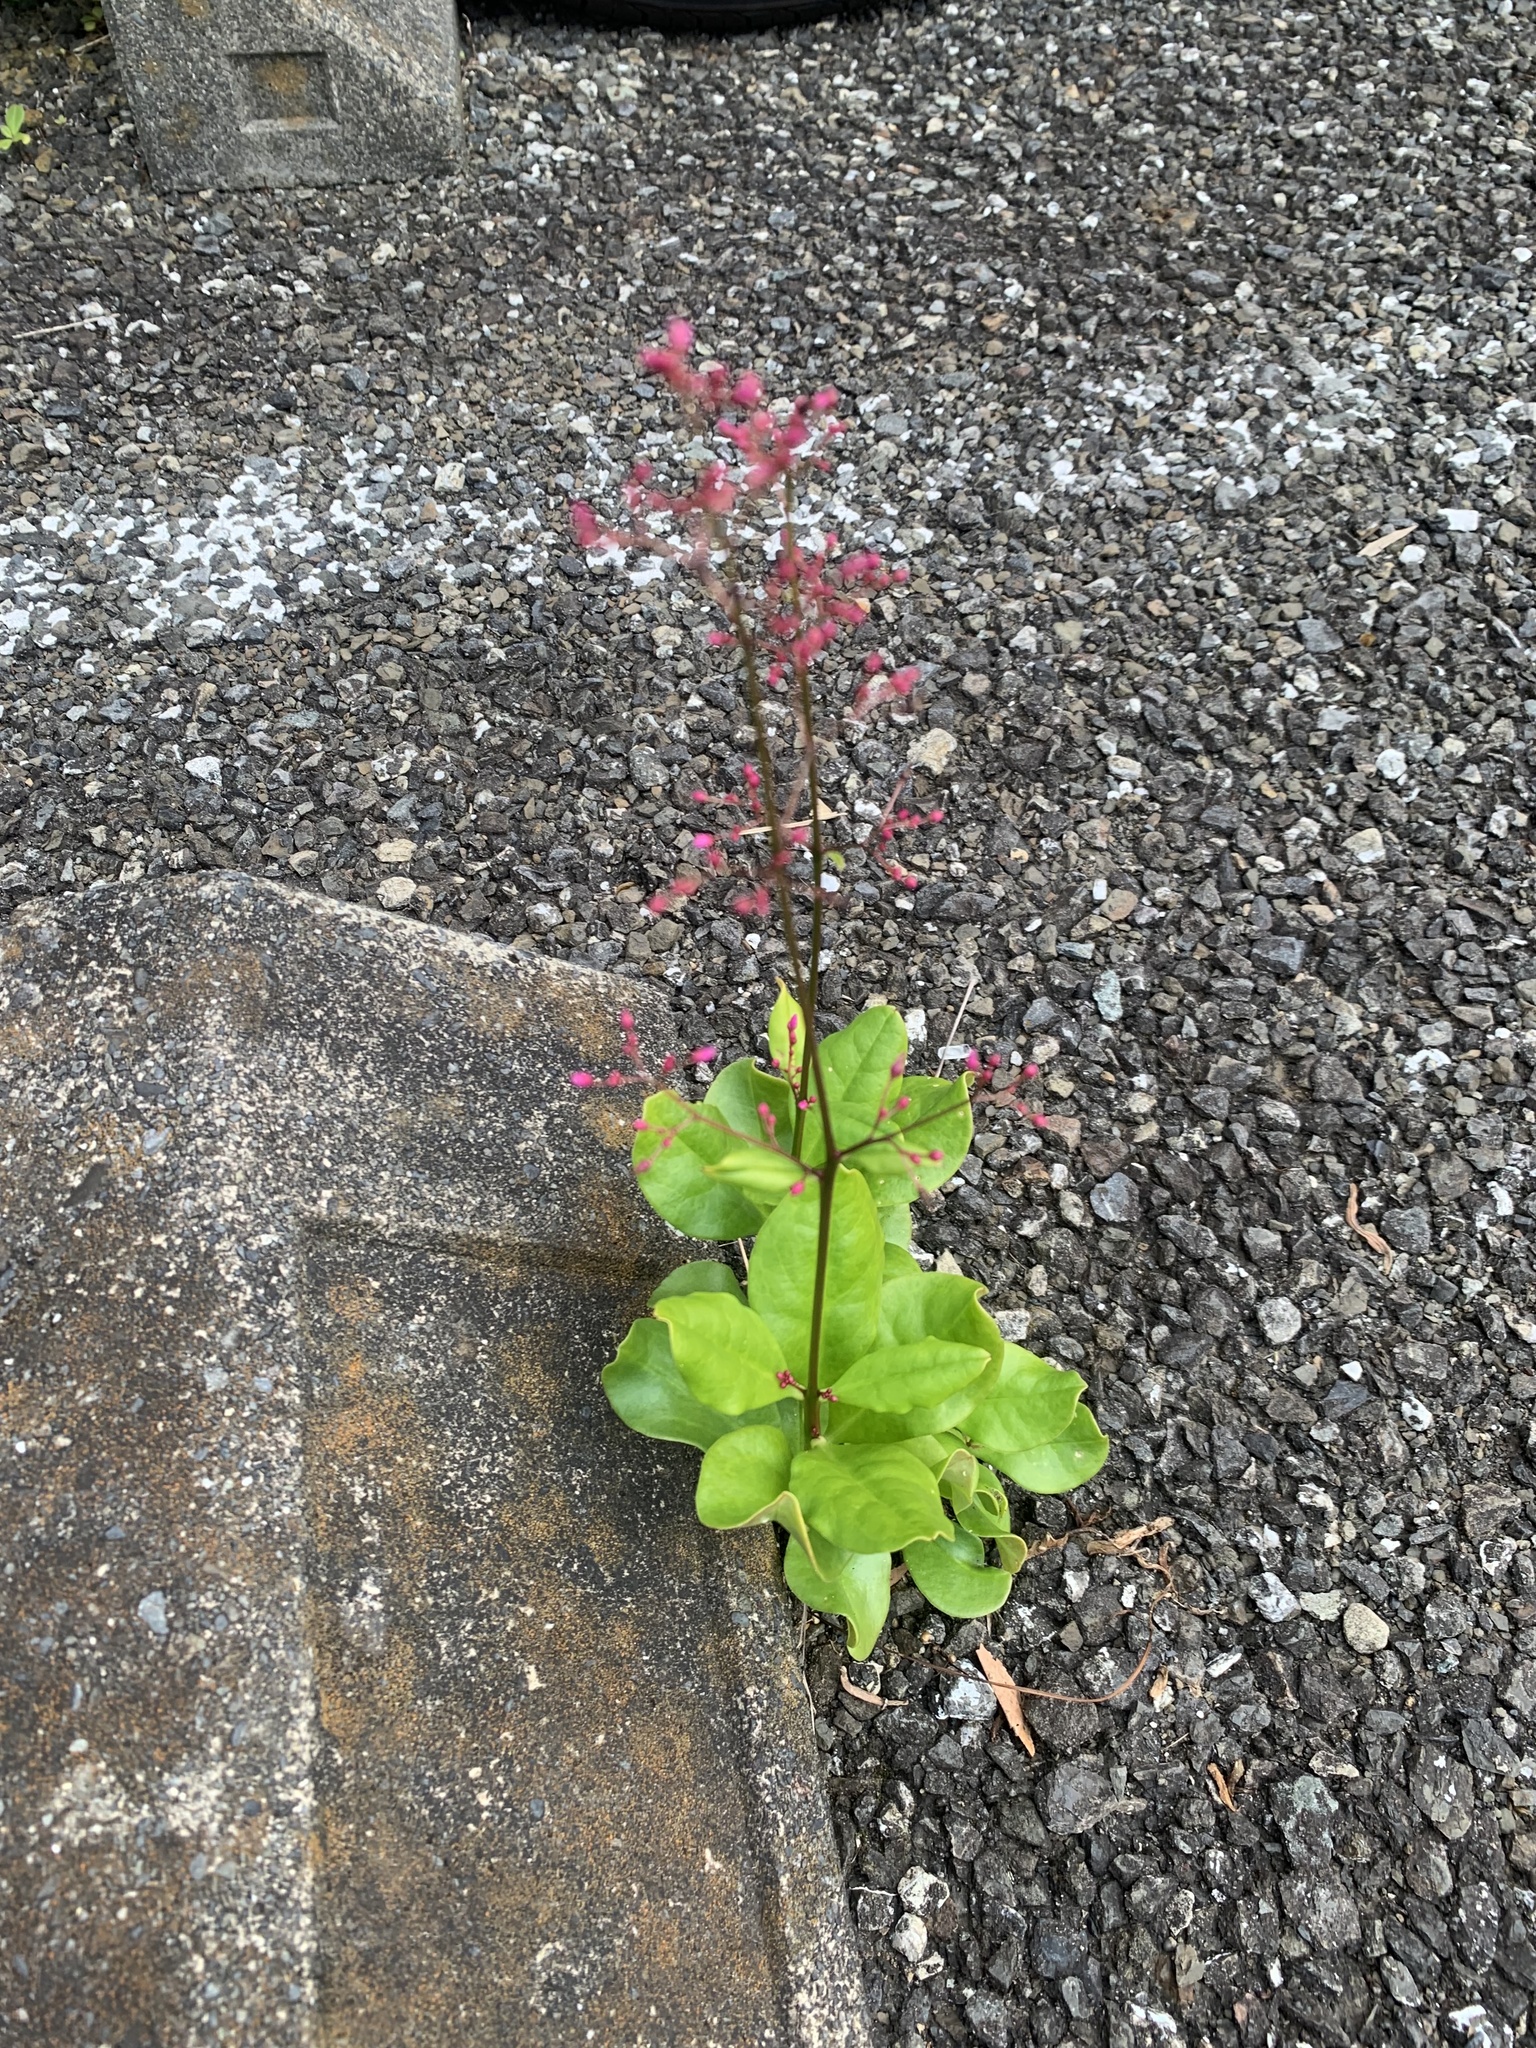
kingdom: Plantae
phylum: Tracheophyta
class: Magnoliopsida
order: Caryophyllales
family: Talinaceae
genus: Talinum
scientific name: Talinum paniculatum
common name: Jewels of opar
